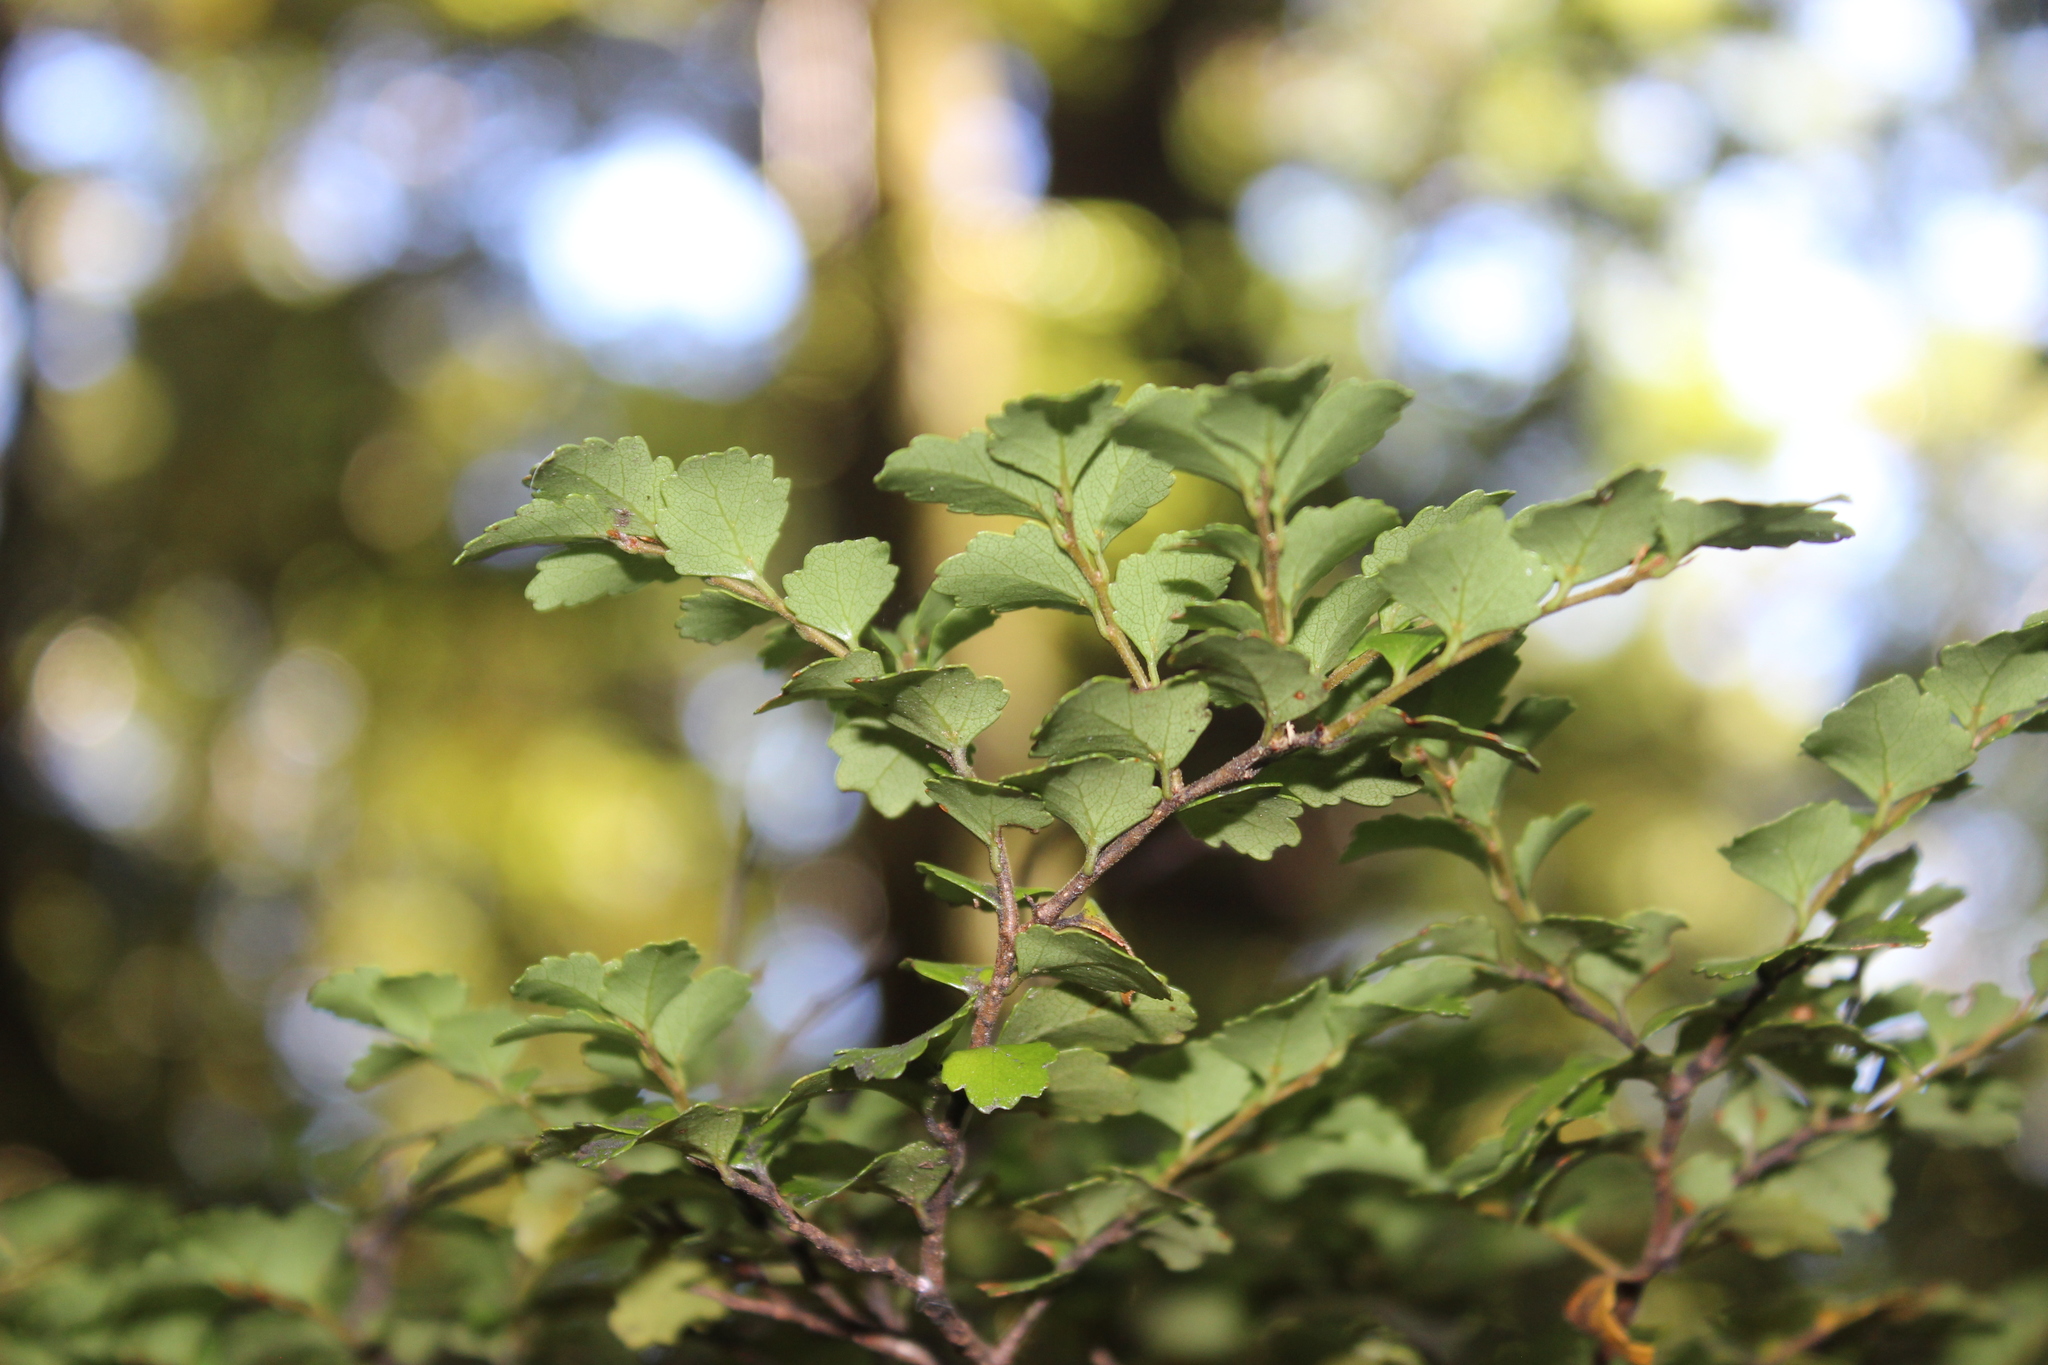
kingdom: Plantae
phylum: Tracheophyta
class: Magnoliopsida
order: Fagales
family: Nothofagaceae
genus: Nothofagus
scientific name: Nothofagus menziesii
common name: Silver beech
